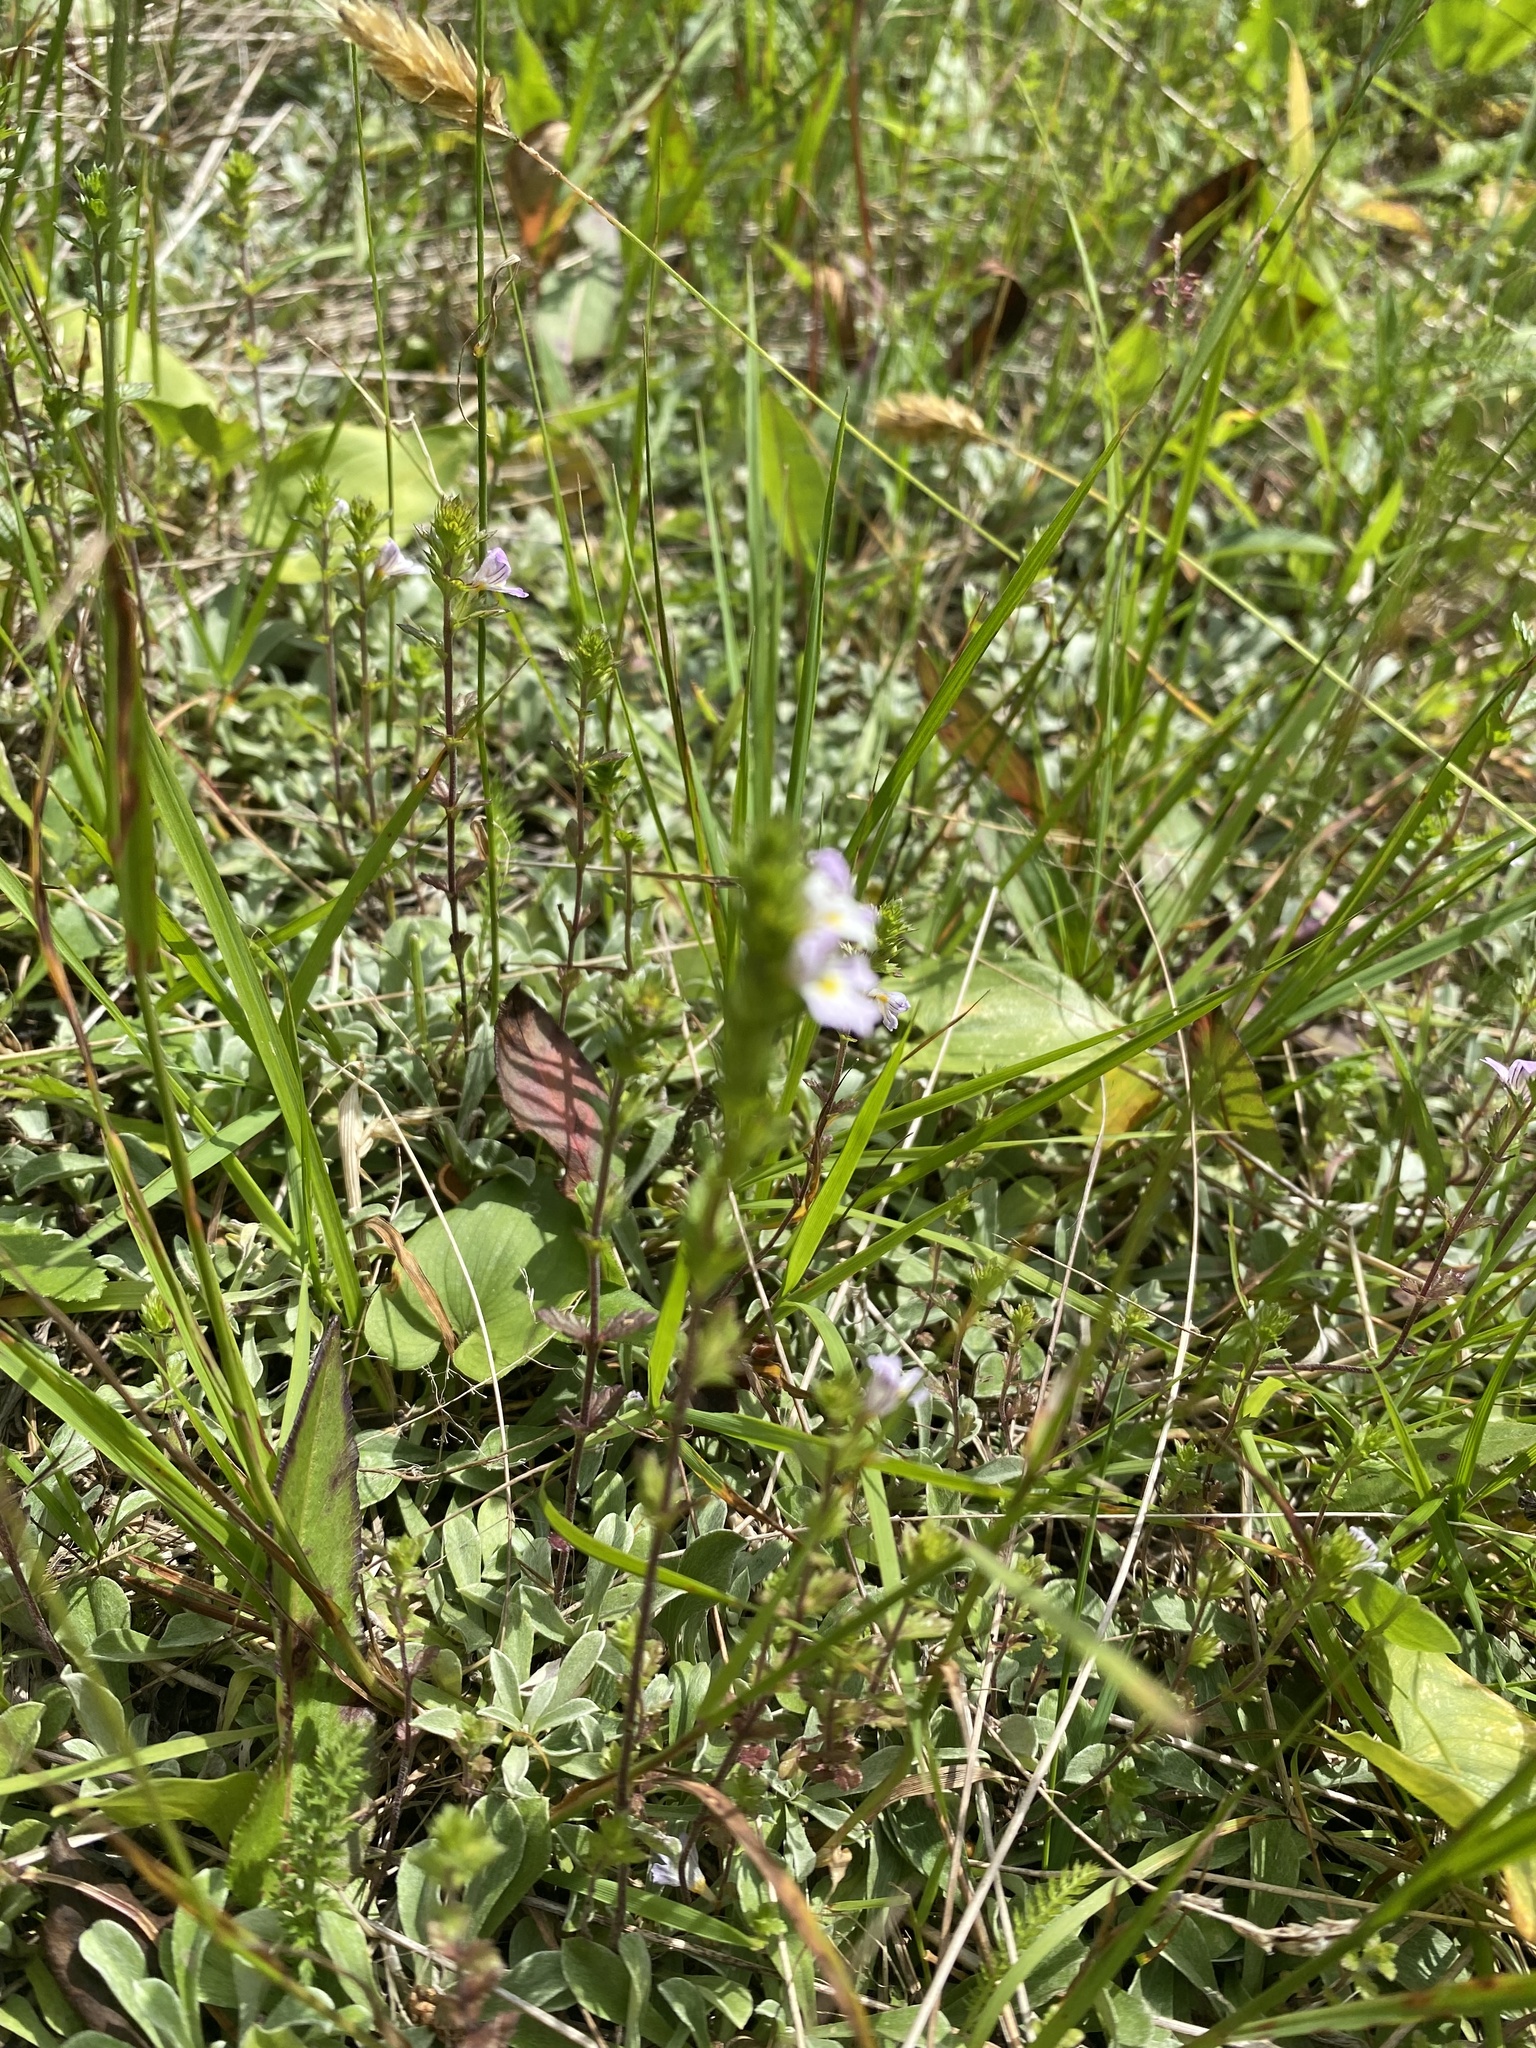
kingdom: Plantae
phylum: Tracheophyta
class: Magnoliopsida
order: Lamiales
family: Orobanchaceae
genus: Euphrasia
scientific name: Euphrasia stricta
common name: Drug eyebright
